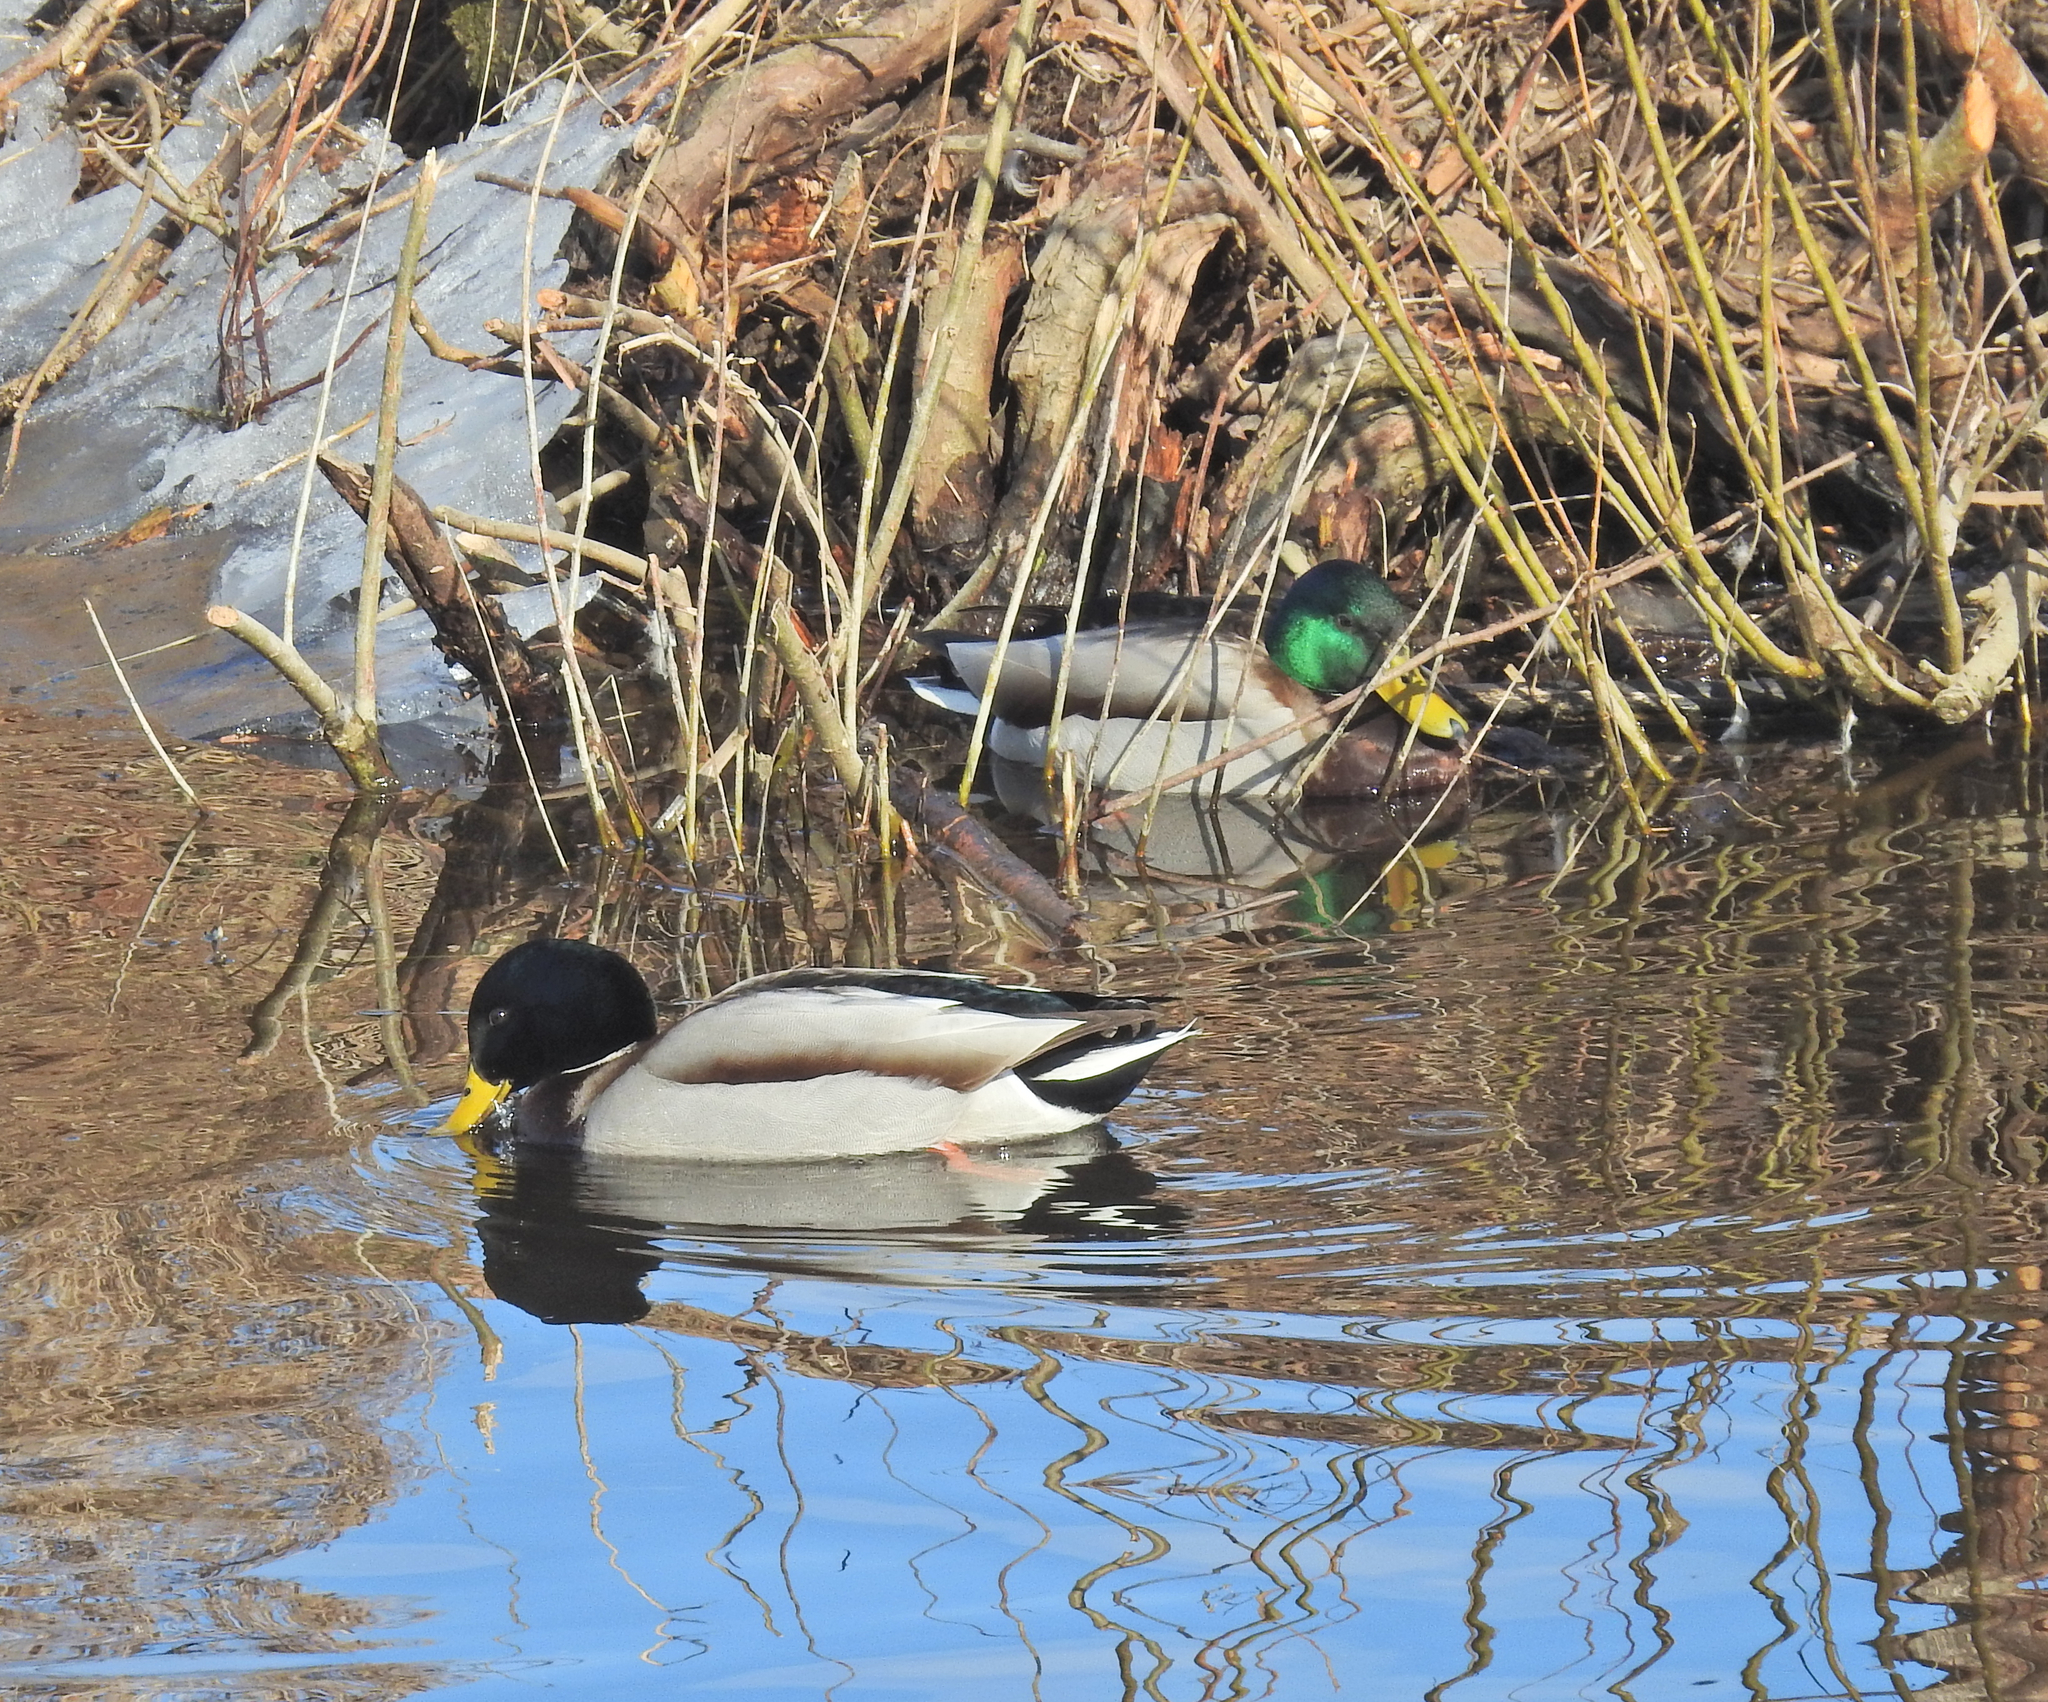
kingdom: Animalia
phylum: Chordata
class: Aves
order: Anseriformes
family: Anatidae
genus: Anas
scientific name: Anas platyrhynchos
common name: Mallard
